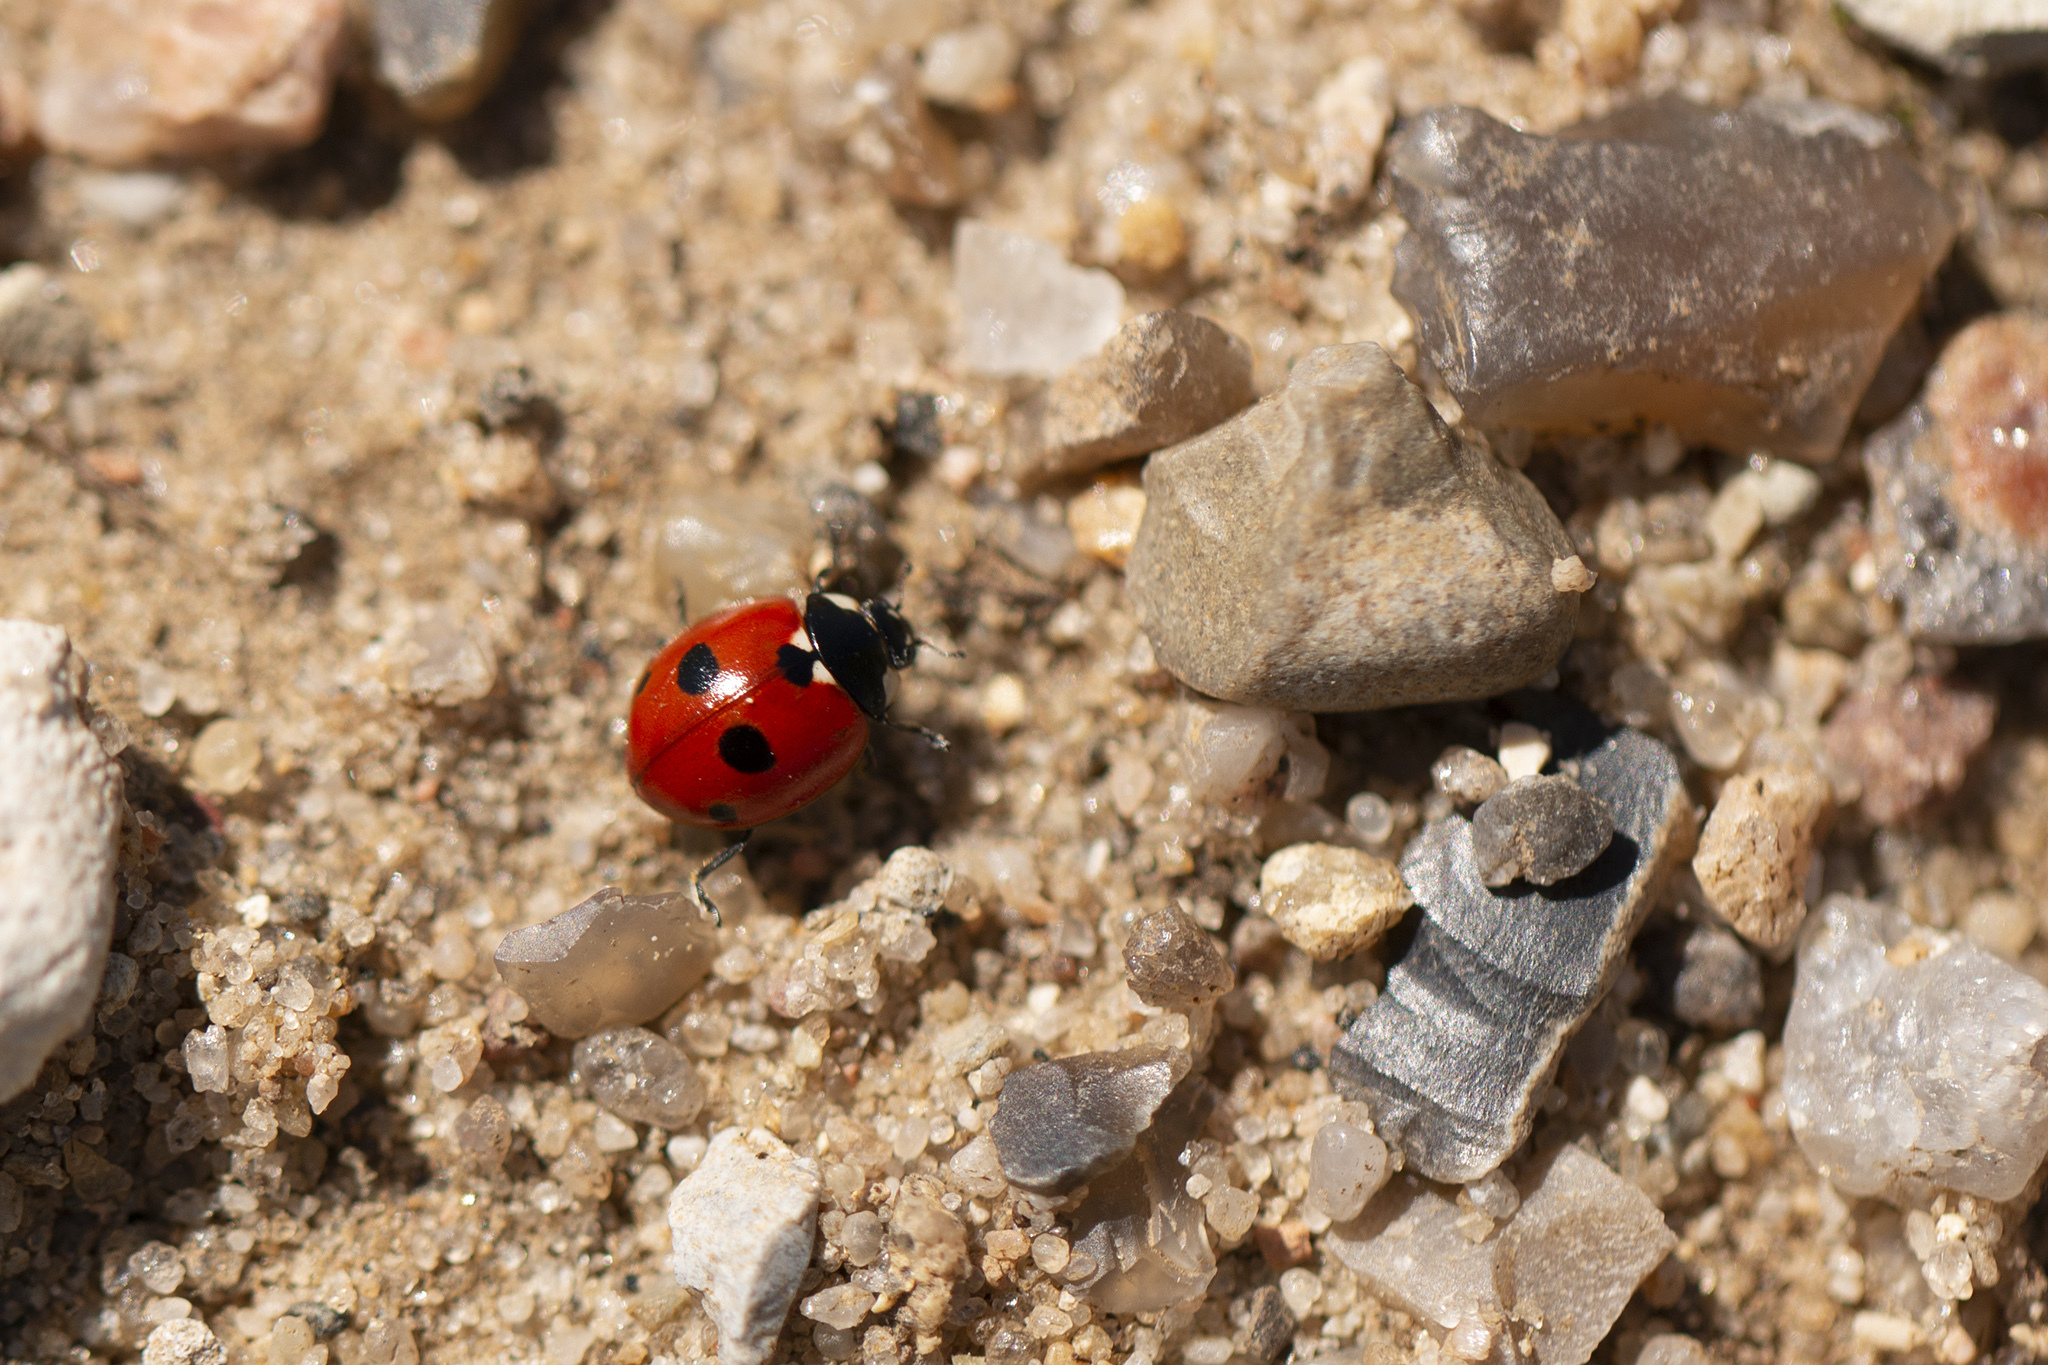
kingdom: Animalia
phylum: Arthropoda
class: Insecta
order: Coleoptera
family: Coccinellidae
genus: Coccinella
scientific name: Coccinella quinquepunctata
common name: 5-spot ladybird
